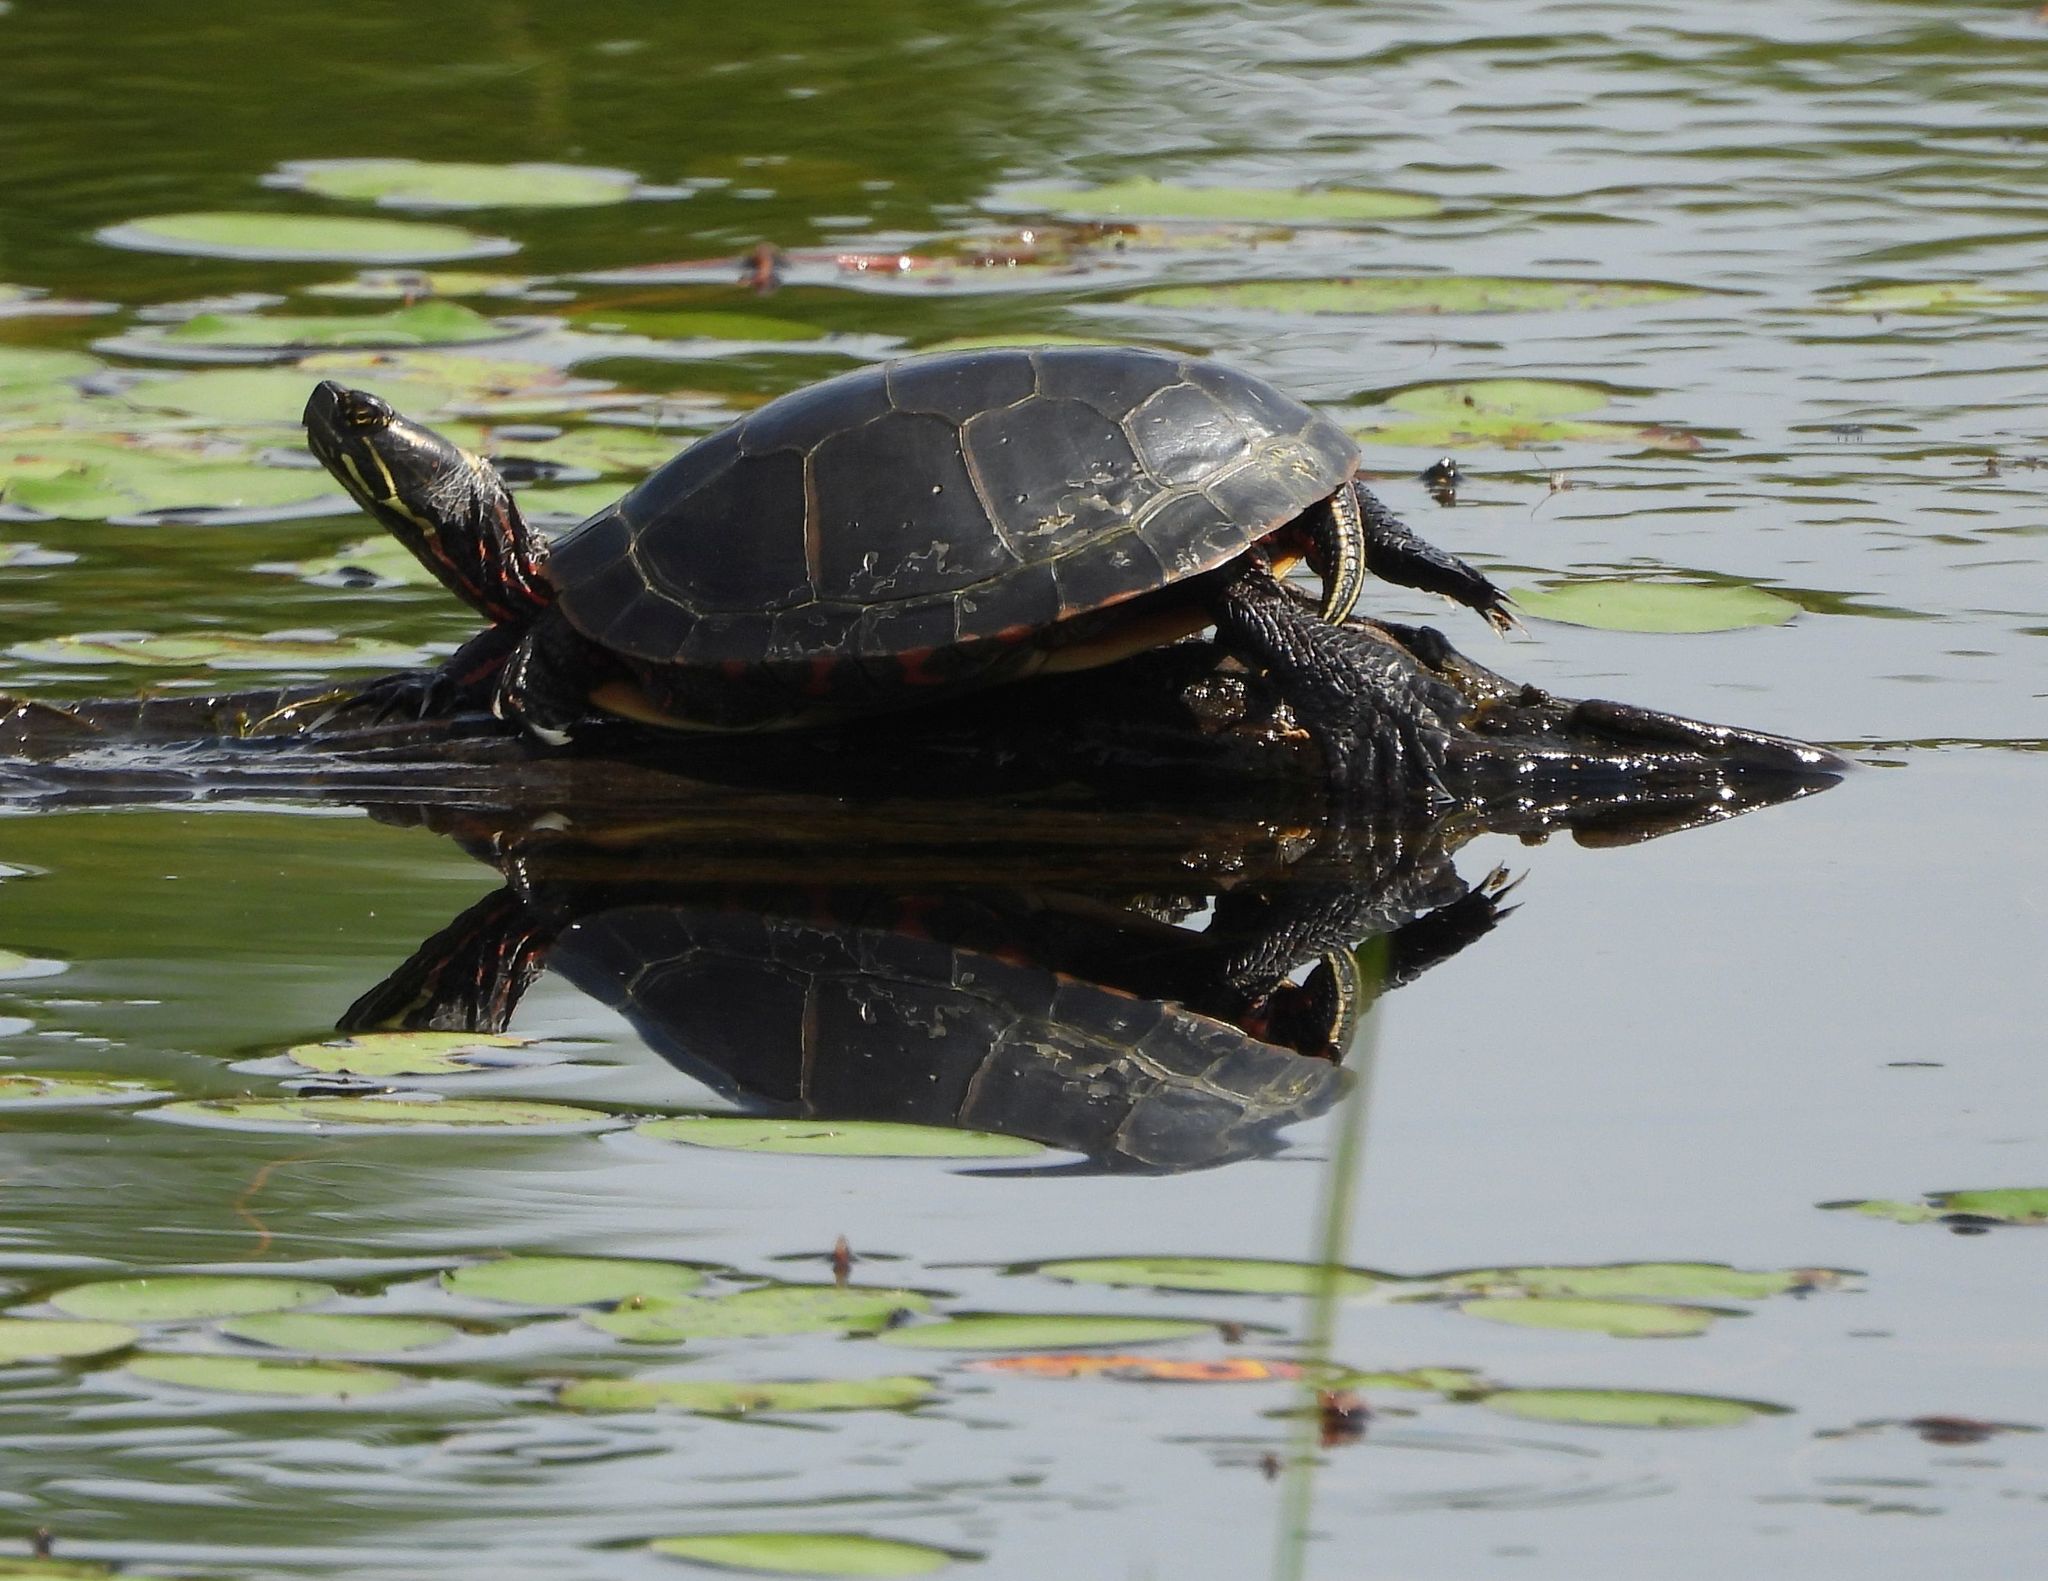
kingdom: Animalia
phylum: Chordata
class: Testudines
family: Emydidae
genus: Chrysemys
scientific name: Chrysemys picta
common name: Painted turtle
